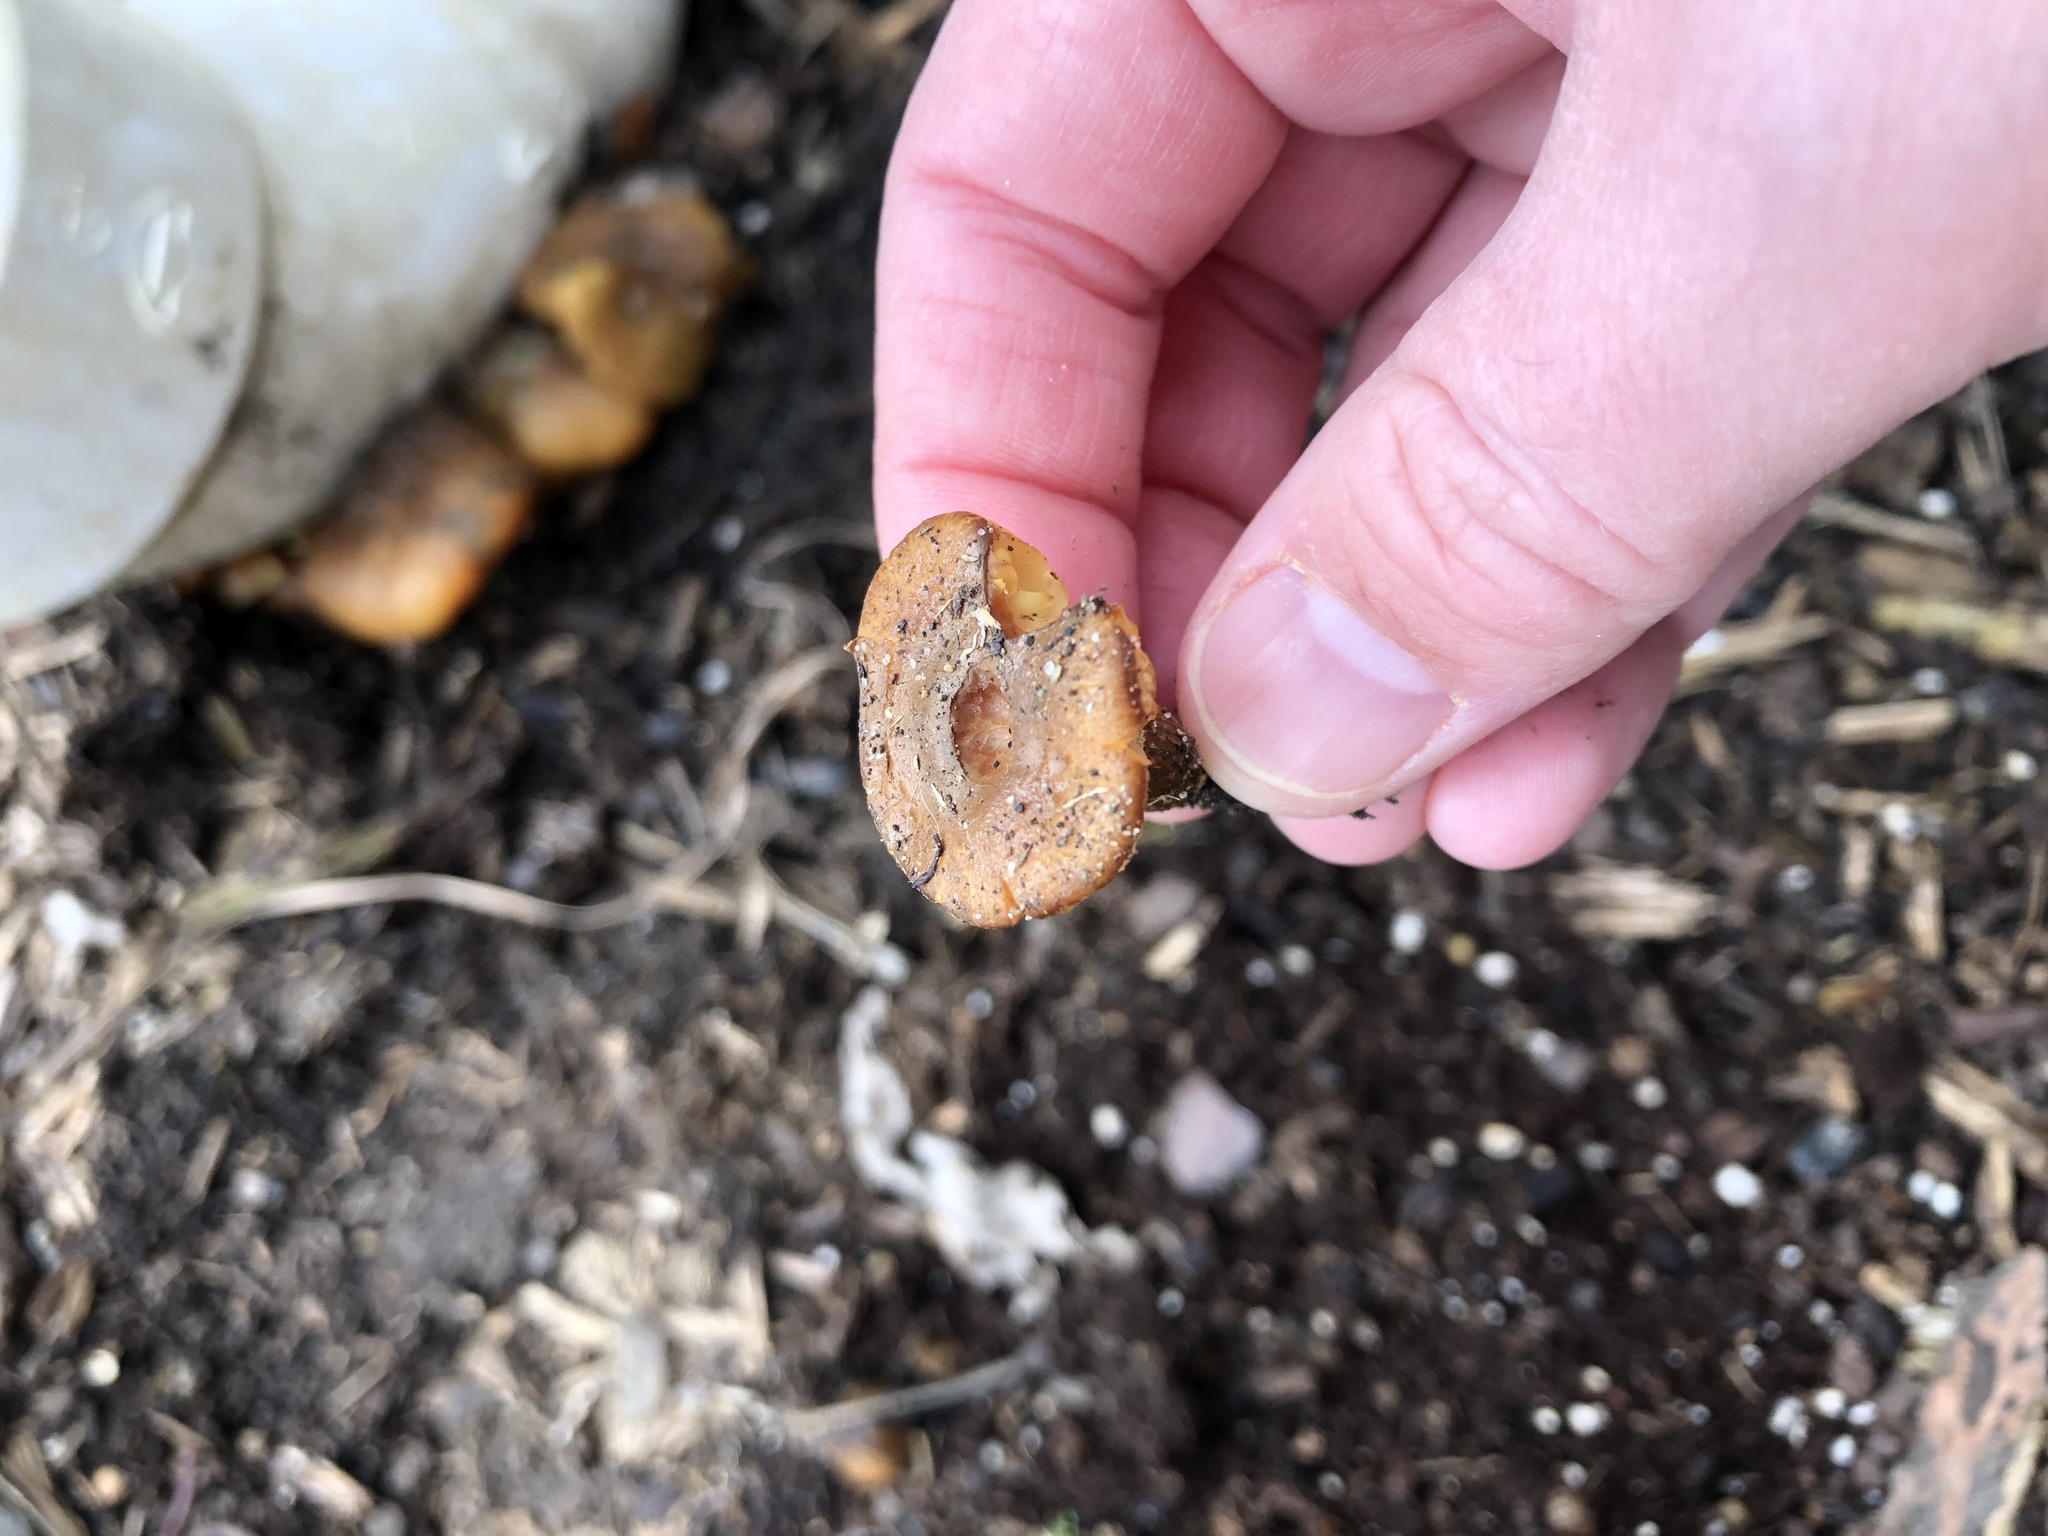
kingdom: Fungi
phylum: Basidiomycota
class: Agaricomycetes
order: Agaricales
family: Physalacriaceae
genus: Flammulina
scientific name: Flammulina velutipes
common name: Velvet shank
